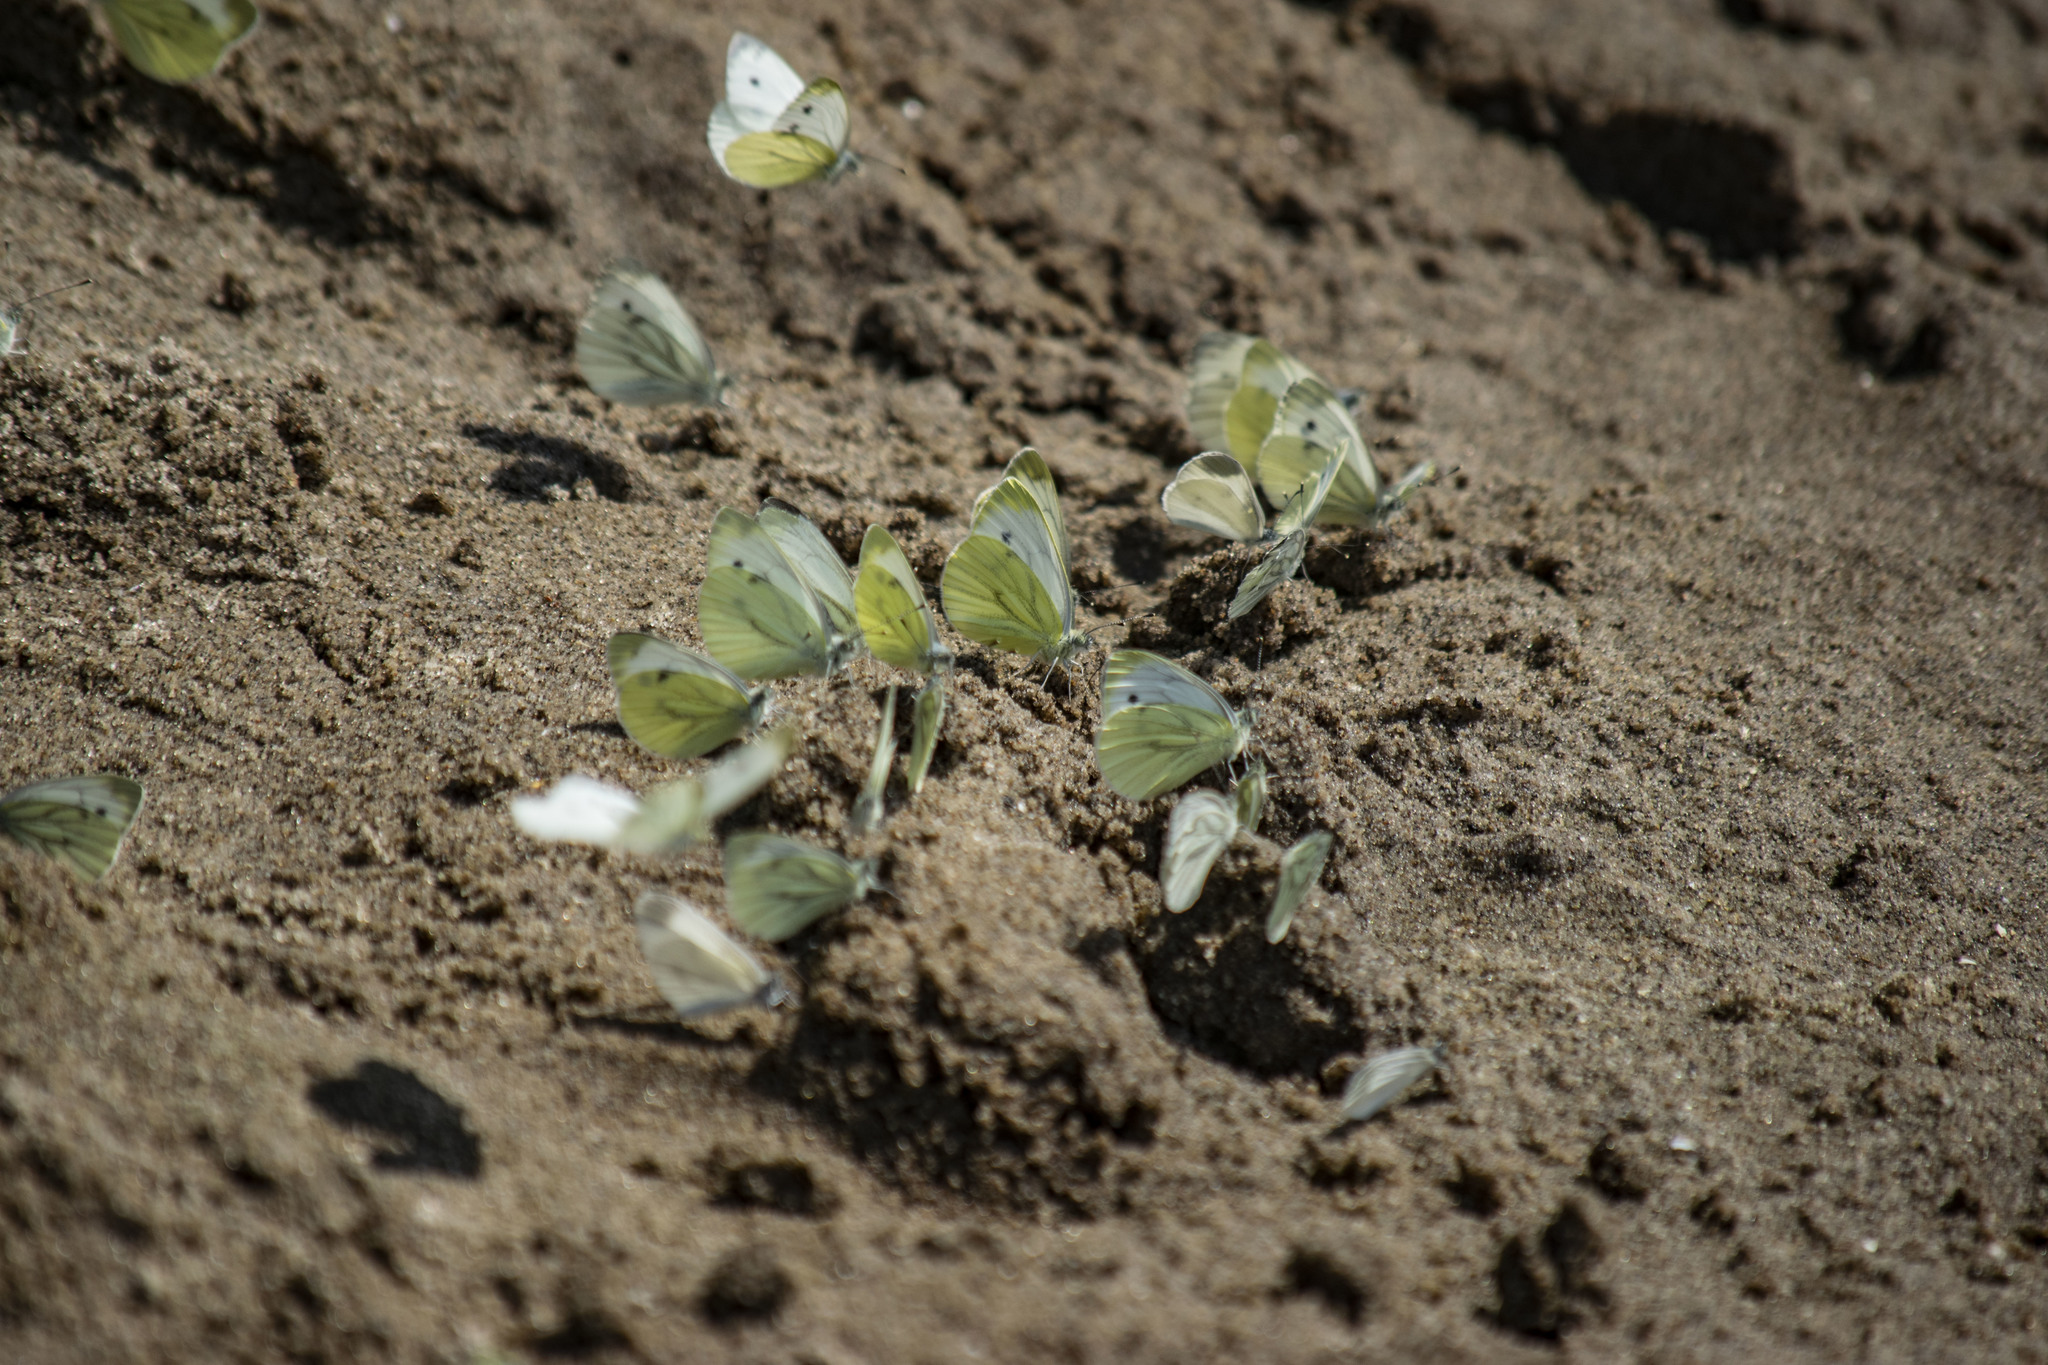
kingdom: Animalia
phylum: Arthropoda
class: Insecta
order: Lepidoptera
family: Pieridae
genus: Pieris
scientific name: Pieris napi
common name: Green-veined white
